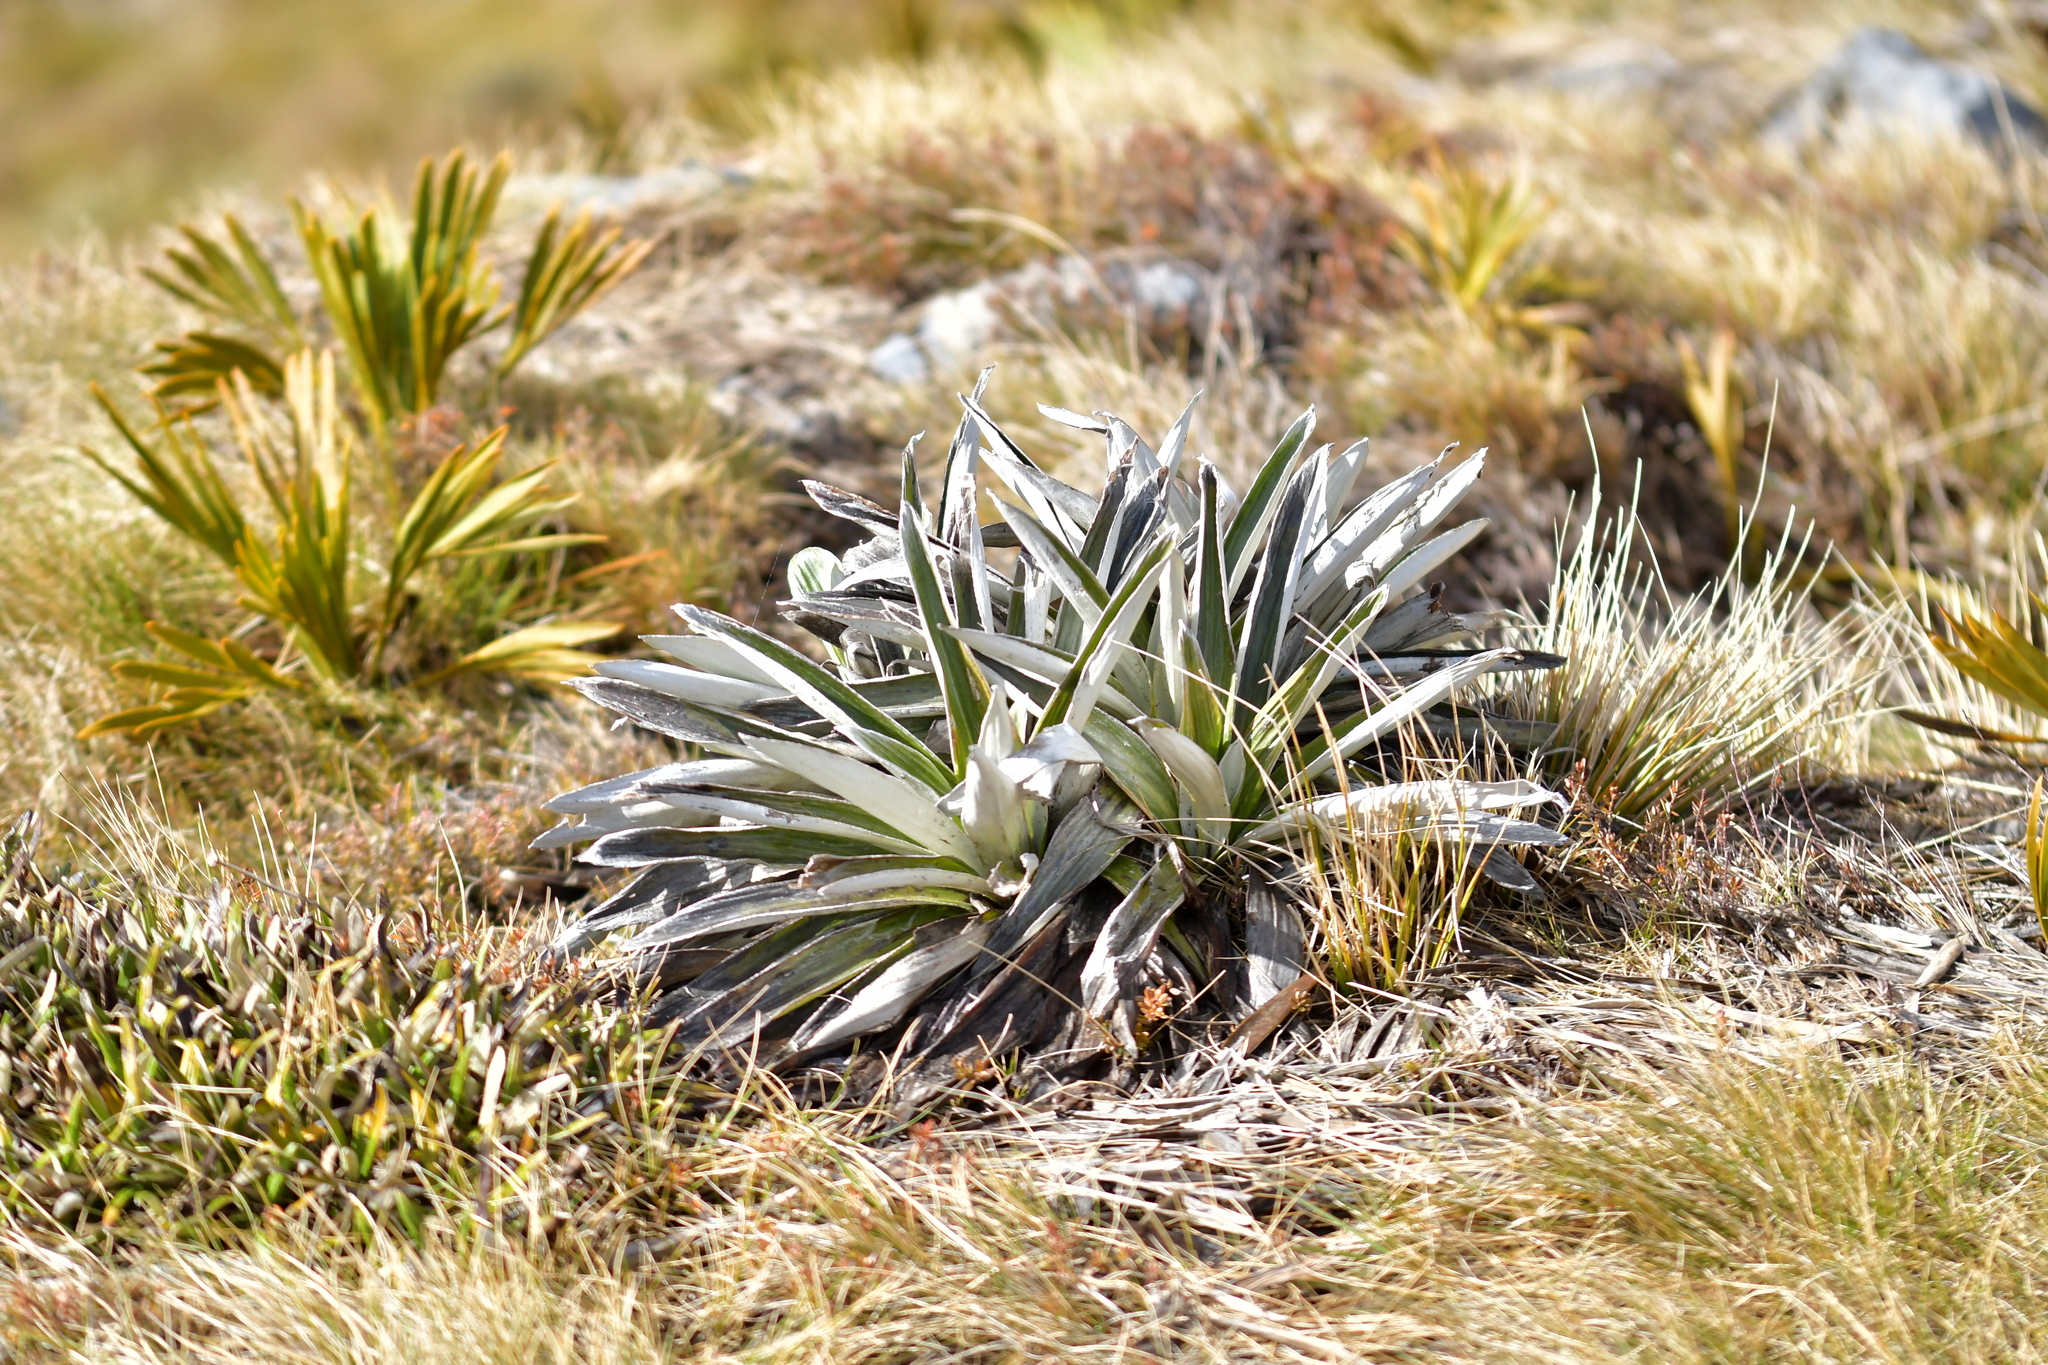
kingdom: Plantae
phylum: Tracheophyta
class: Magnoliopsida
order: Asterales
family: Asteraceae
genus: Celmisia
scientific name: Celmisia semicordata
